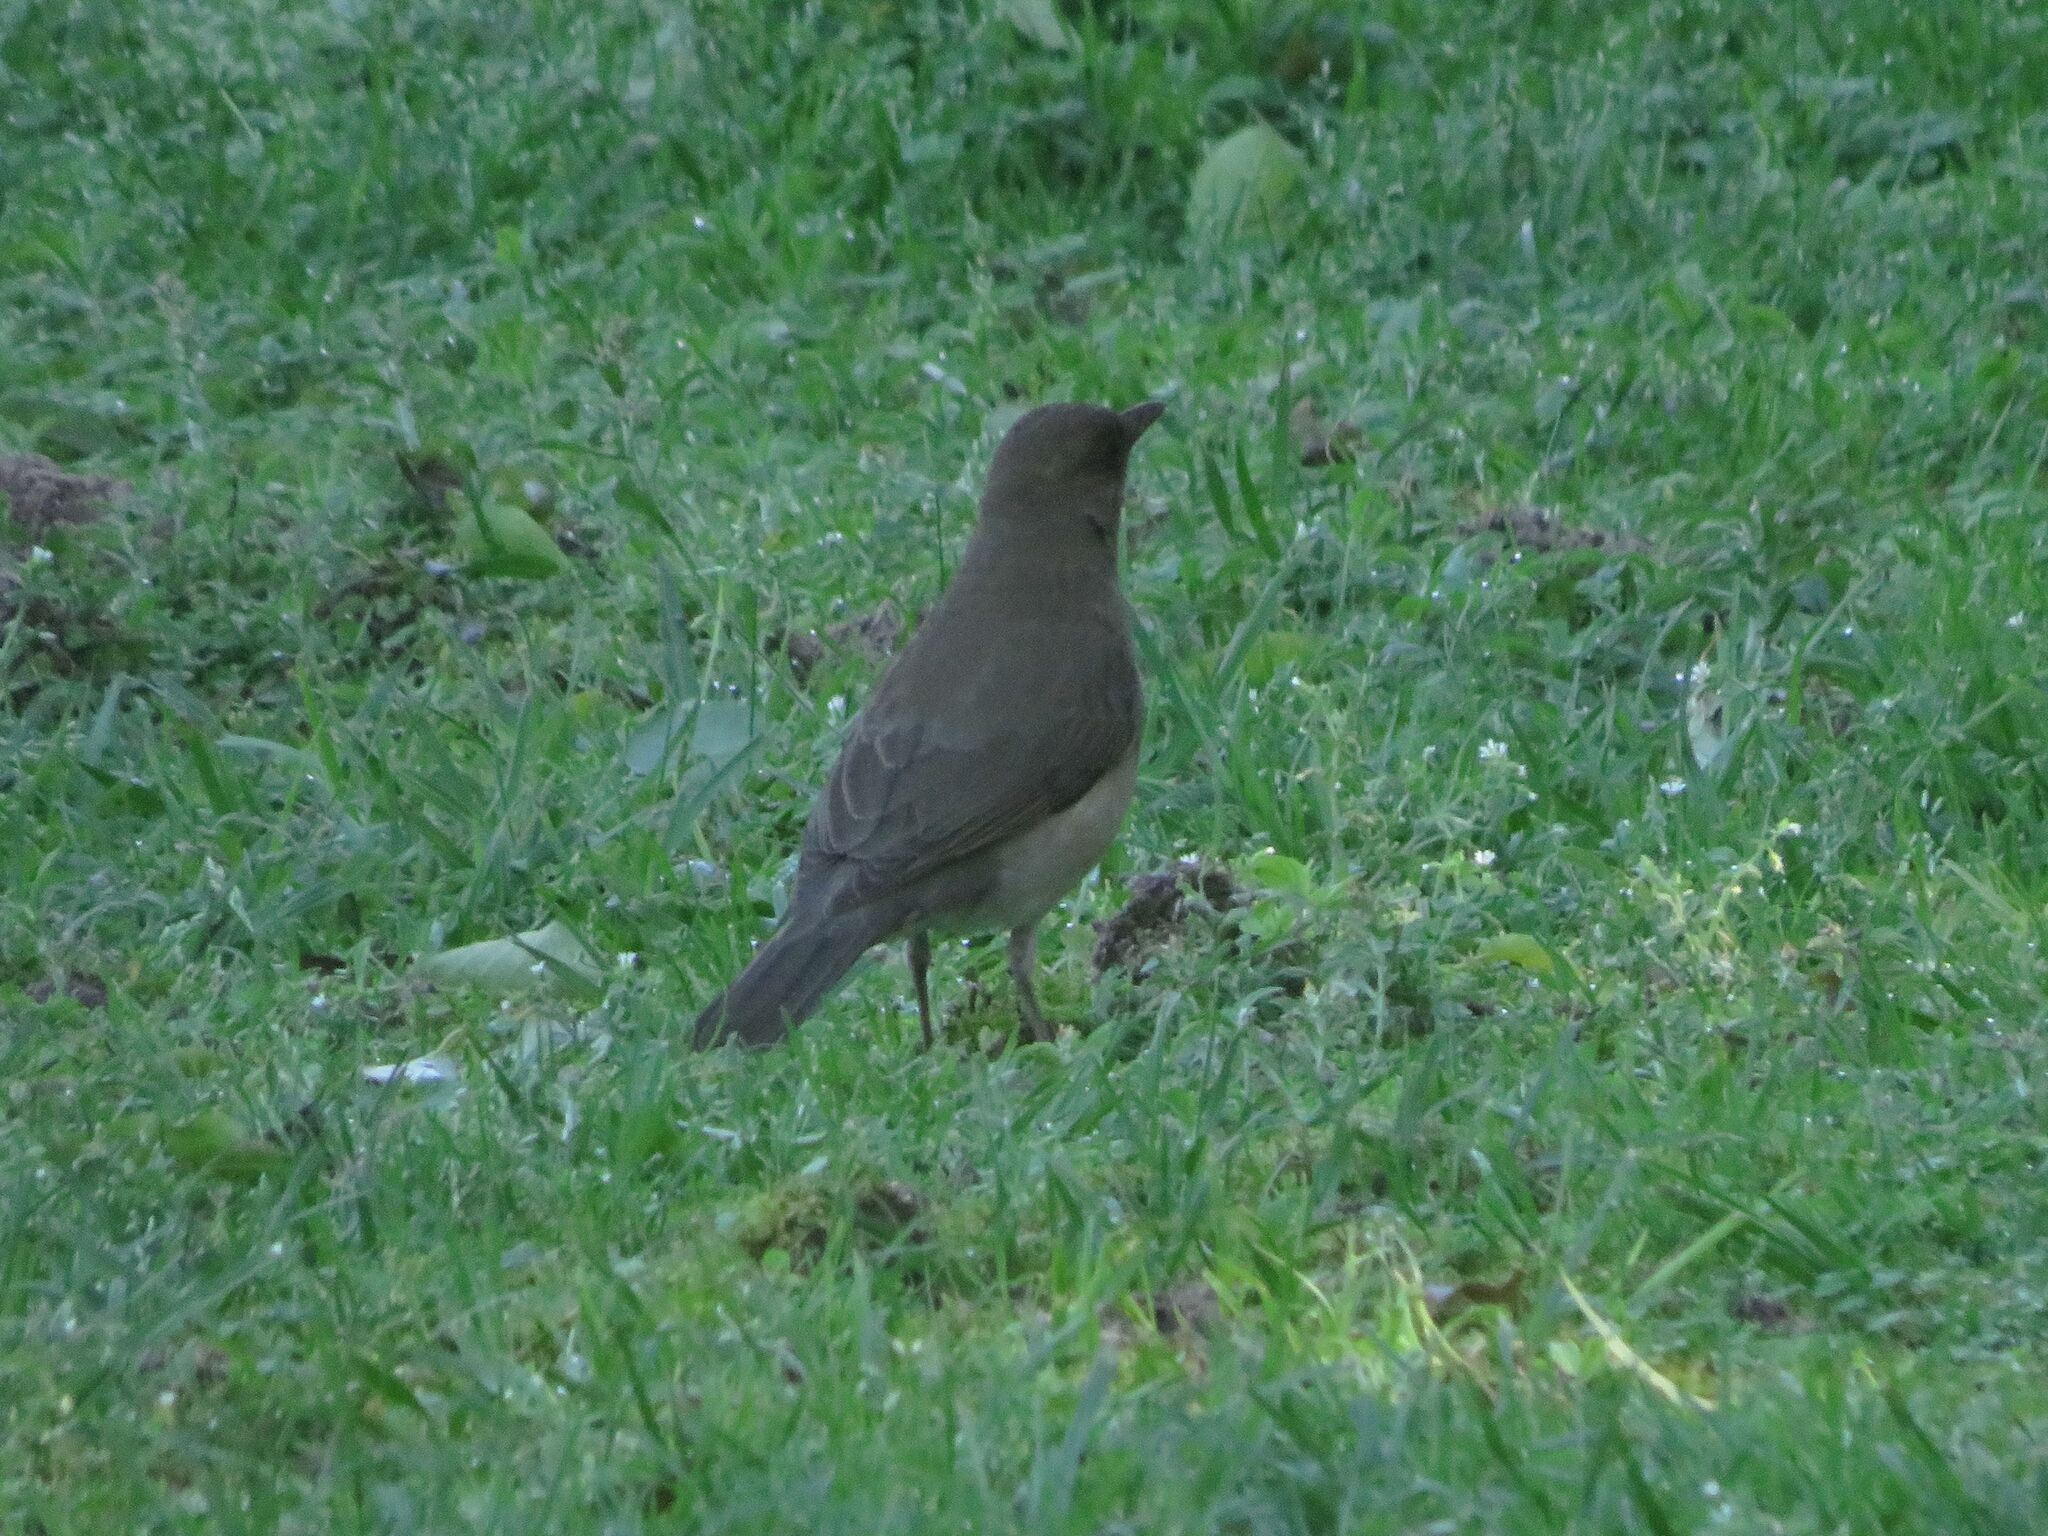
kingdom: Animalia
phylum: Chordata
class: Aves
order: Passeriformes
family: Turdidae
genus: Turdus
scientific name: Turdus amaurochalinus
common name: Creamy-bellied thrush
